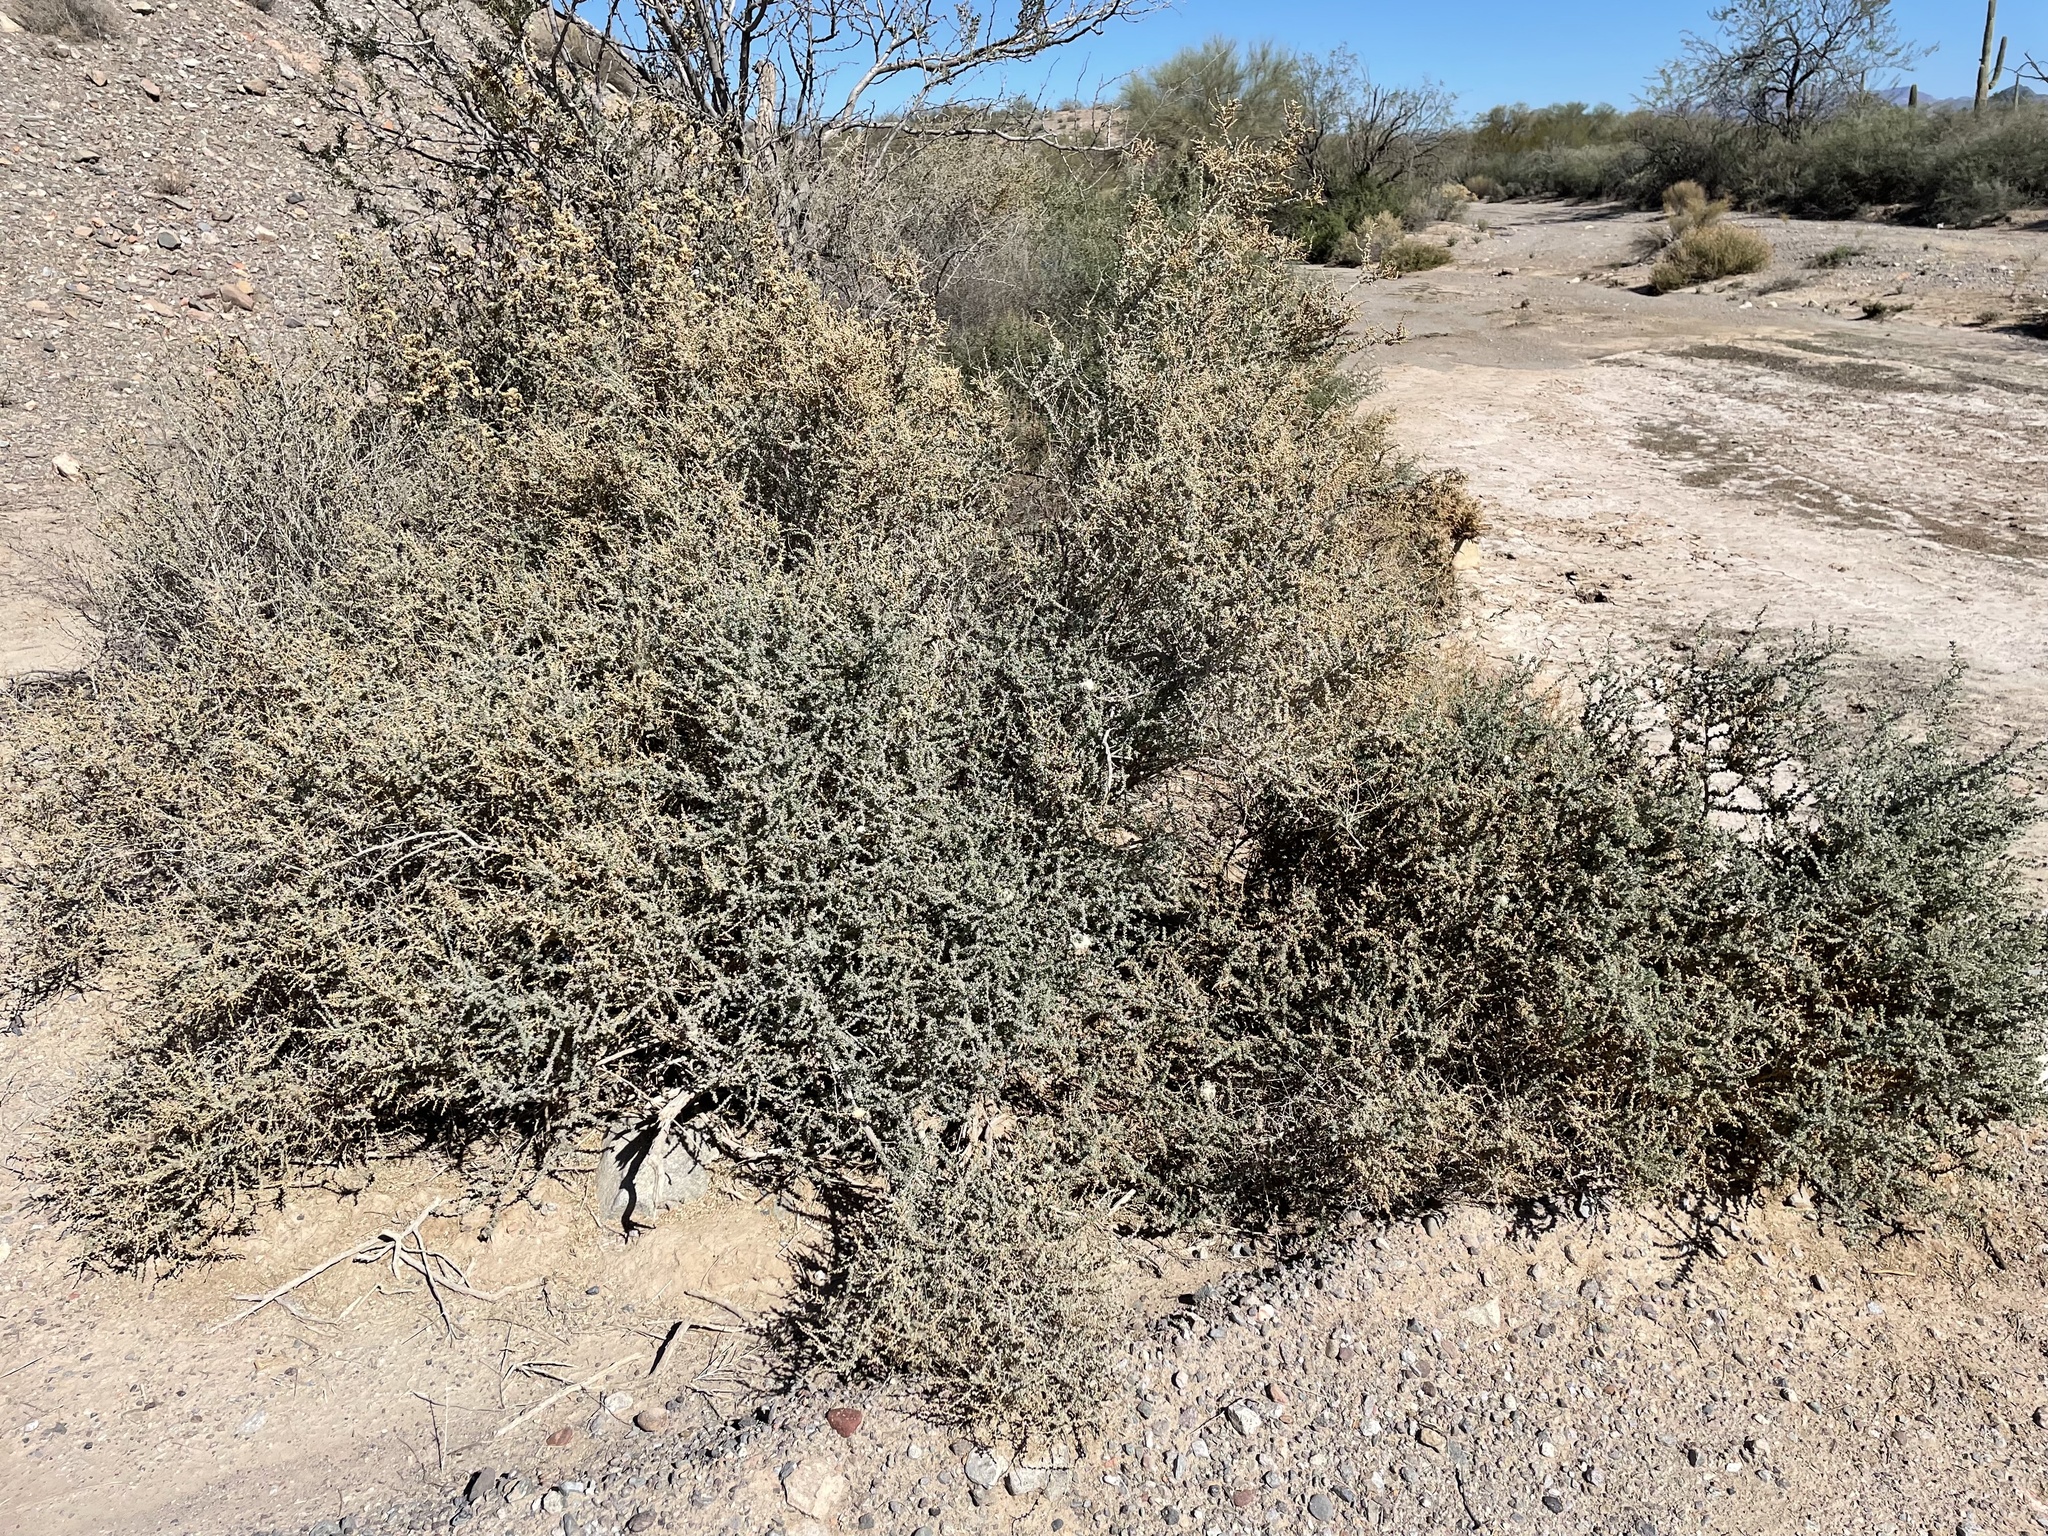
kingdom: Plantae
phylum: Tracheophyta
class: Magnoliopsida
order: Caryophyllales
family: Amaranthaceae
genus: Atriplex
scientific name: Atriplex polycarpa
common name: Desert saltbush
